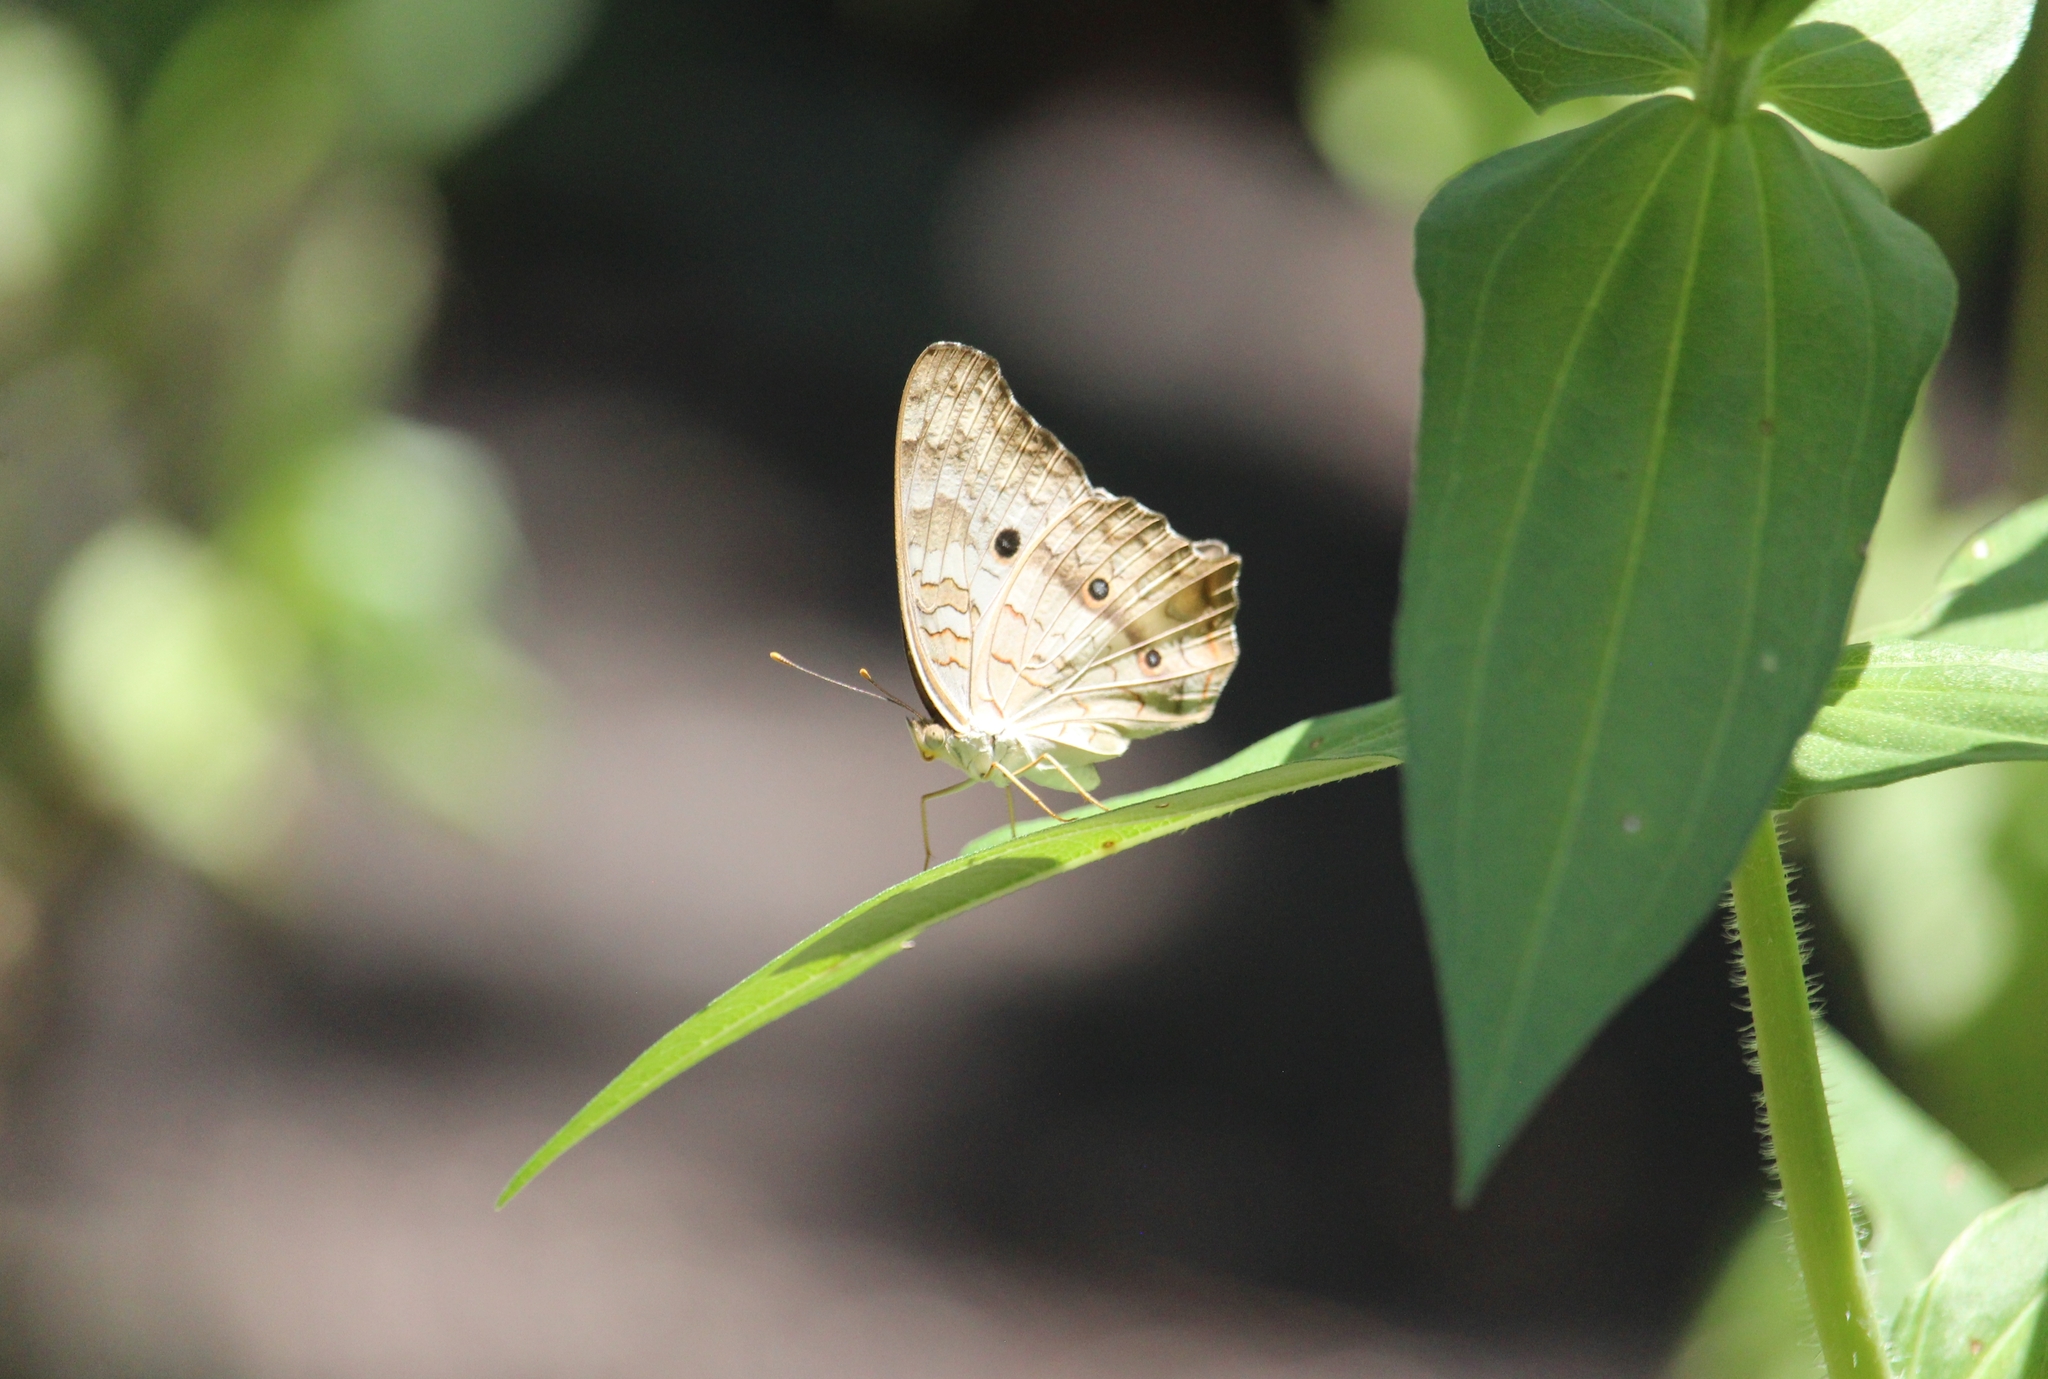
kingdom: Animalia
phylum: Arthropoda
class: Insecta
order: Lepidoptera
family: Nymphalidae
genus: Anartia
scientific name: Anartia jatrophae
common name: White peacock
